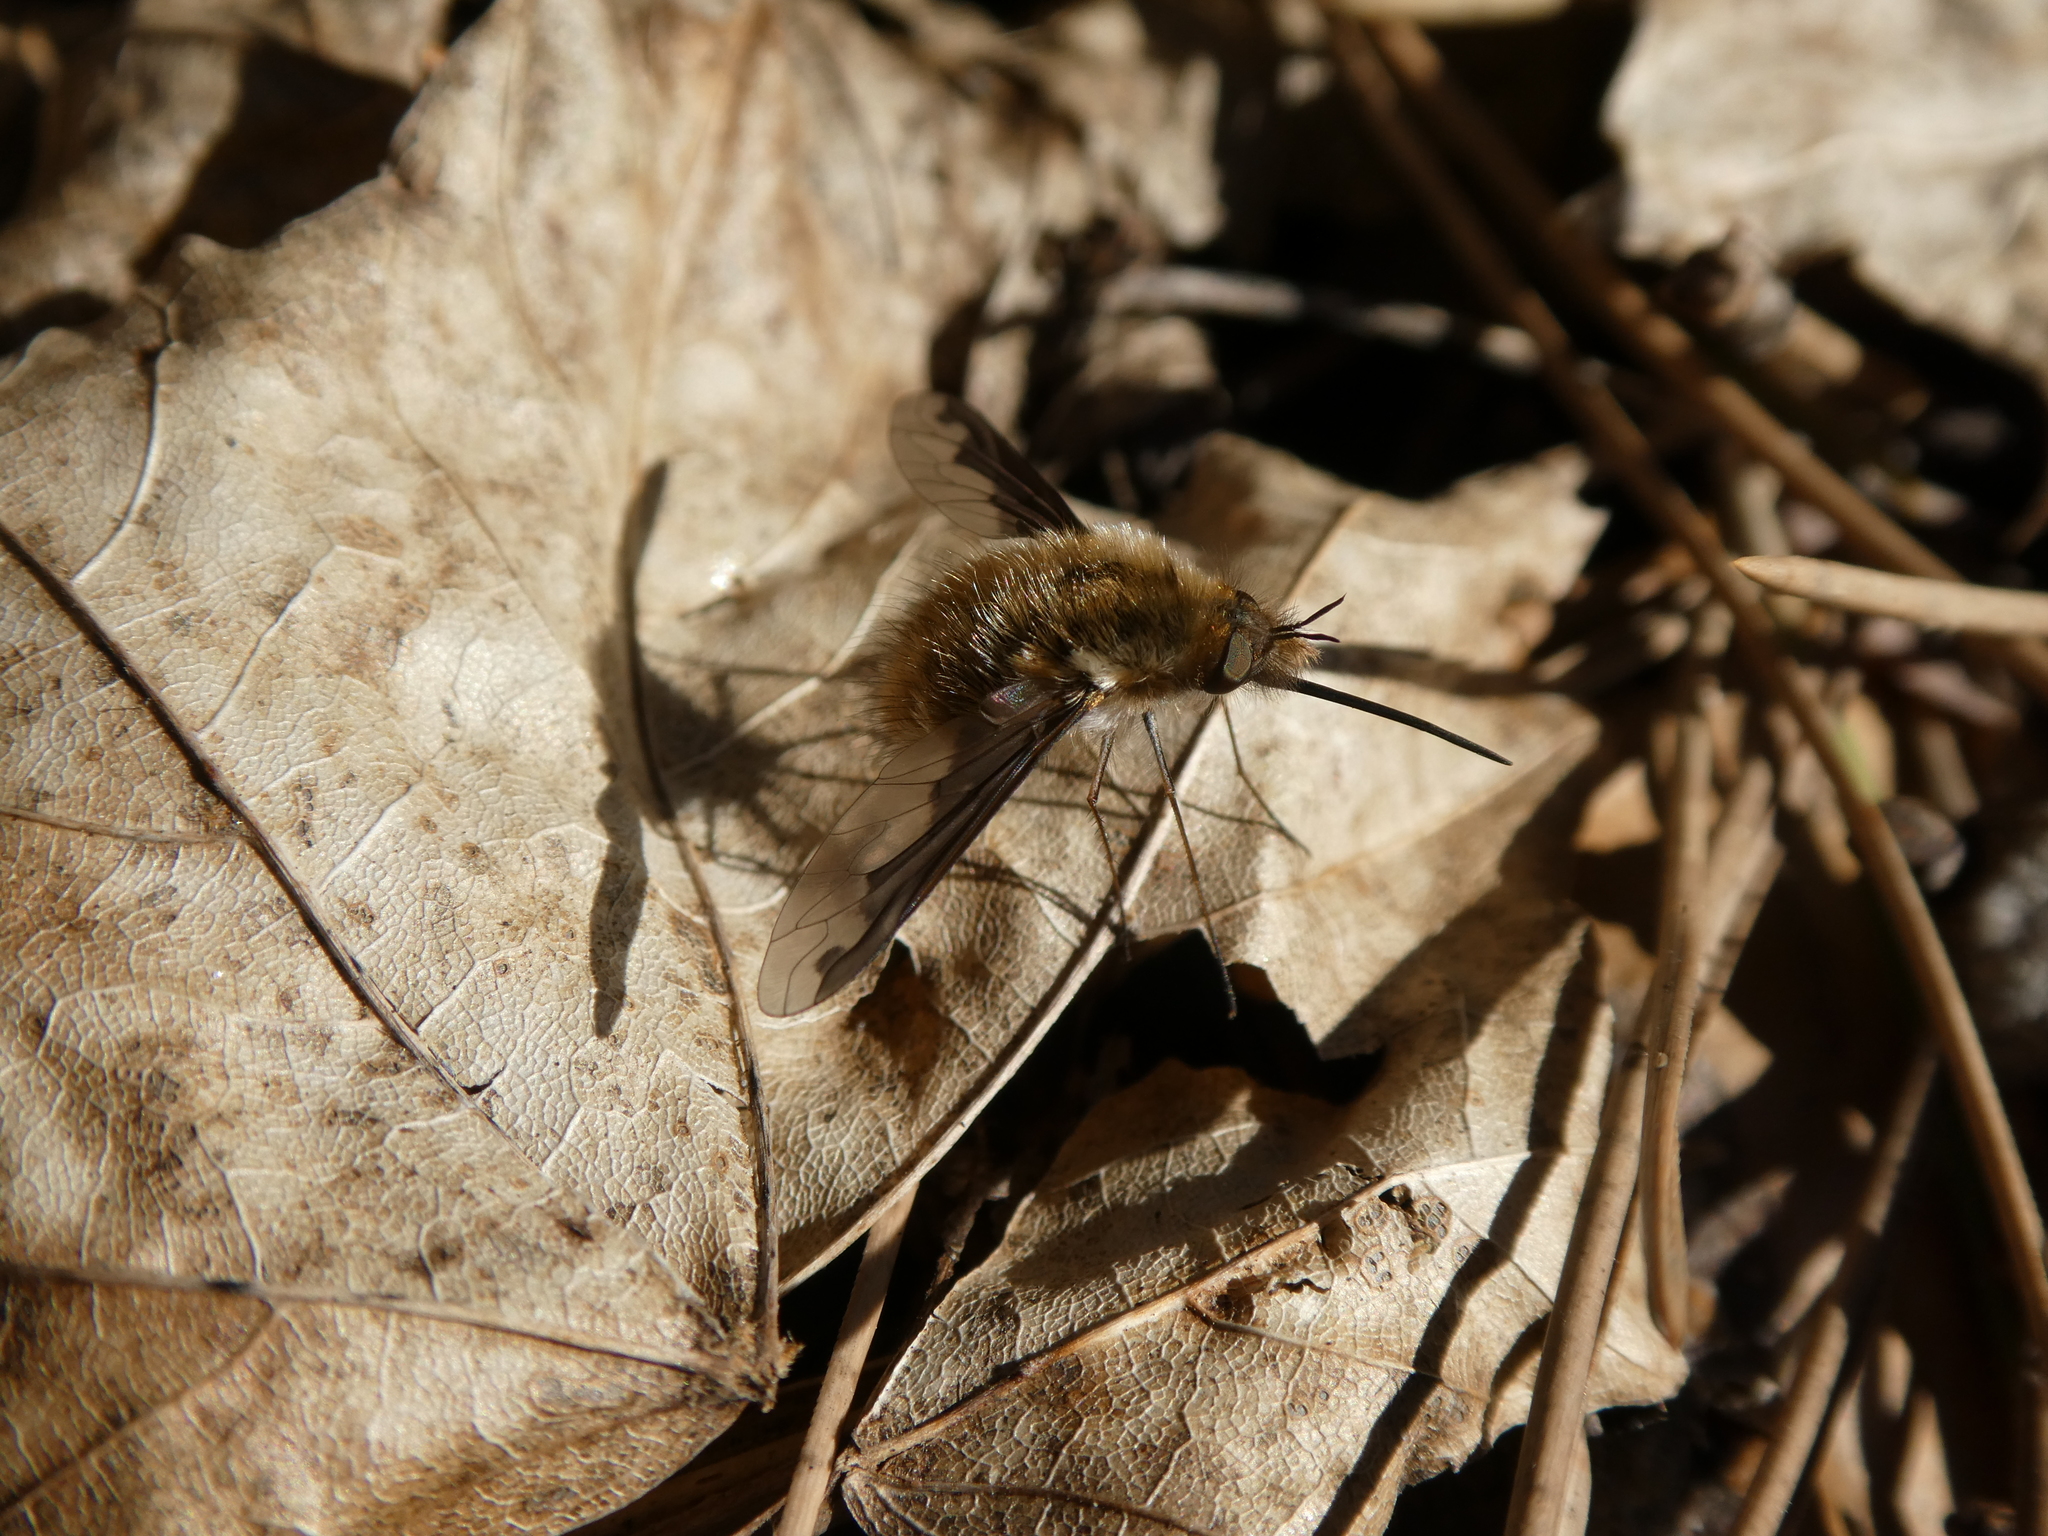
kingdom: Animalia
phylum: Arthropoda
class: Insecta
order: Diptera
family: Bombyliidae
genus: Bombylius
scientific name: Bombylius major
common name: Bee fly
